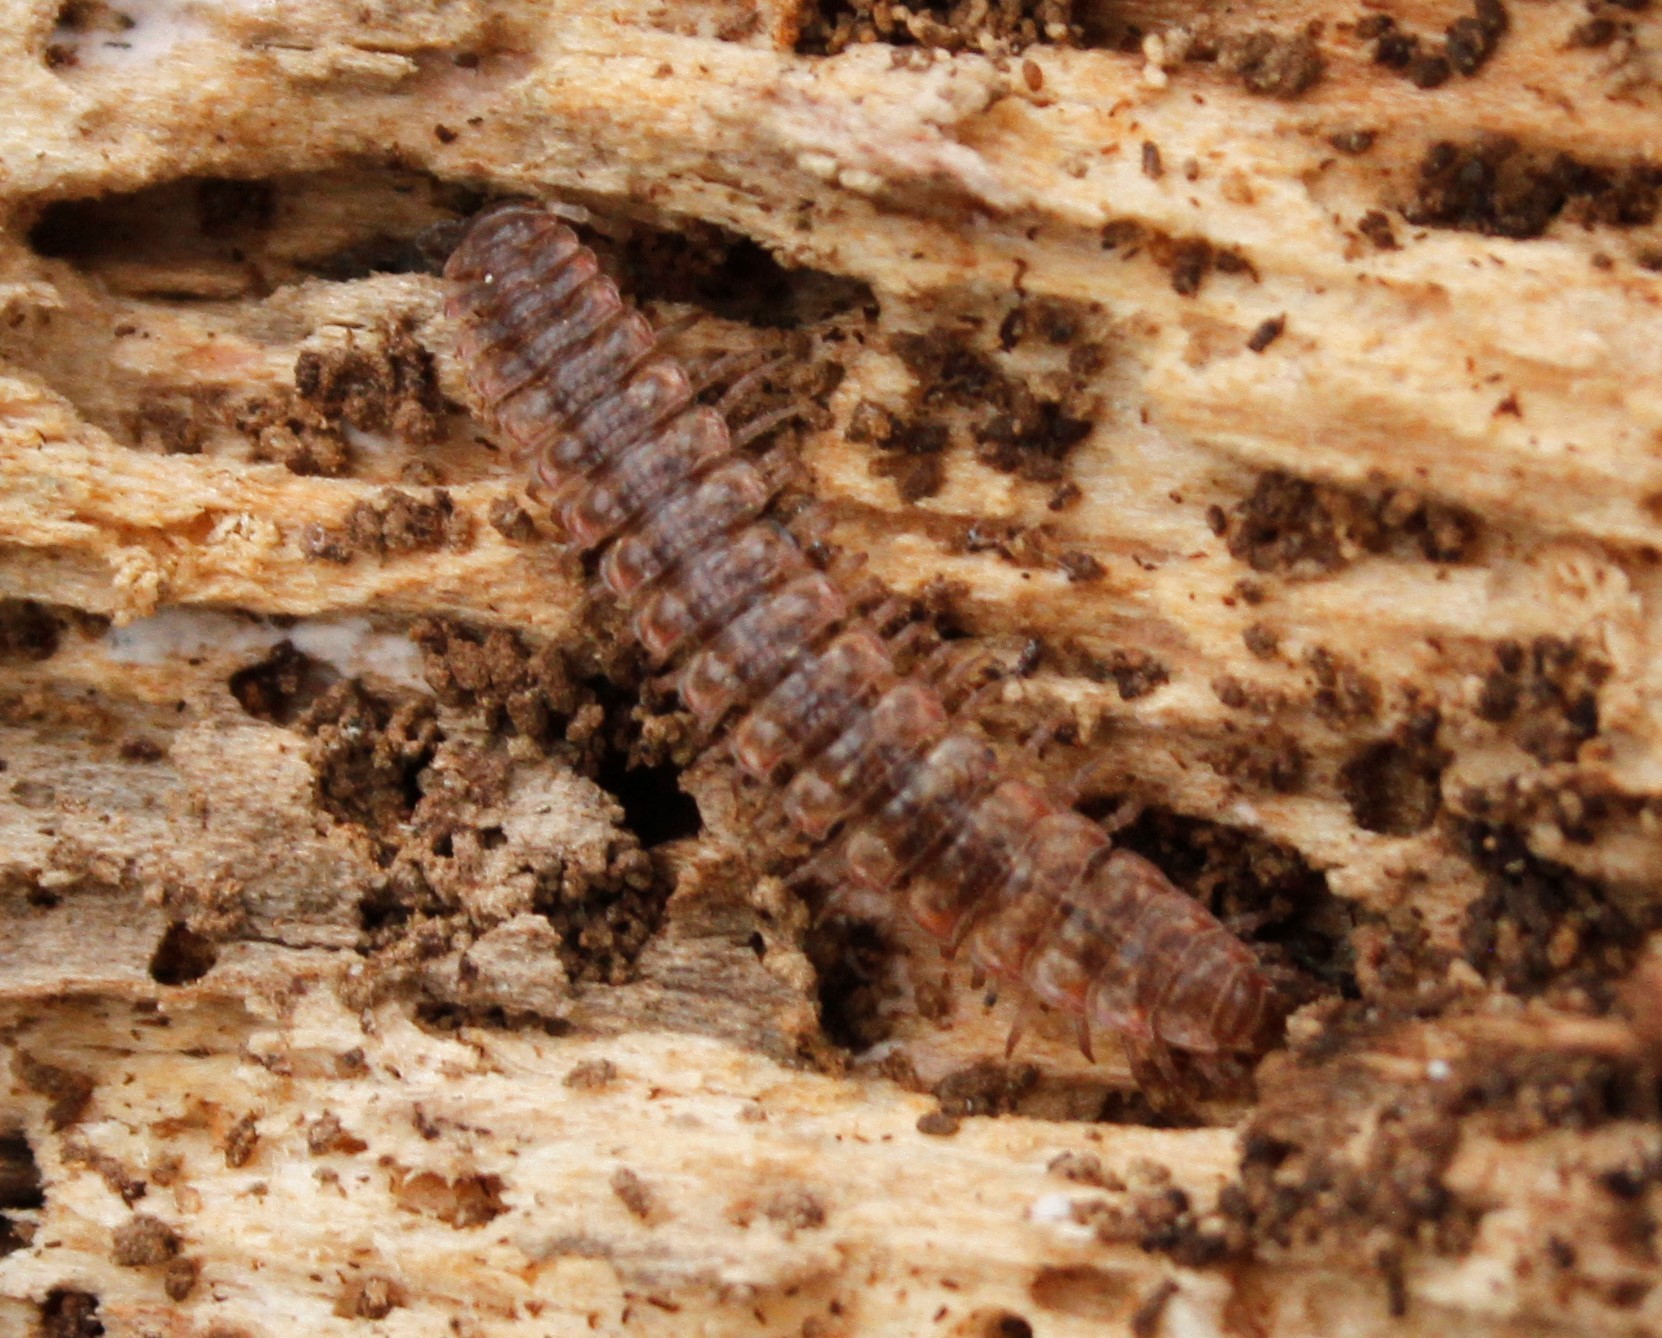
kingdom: Animalia
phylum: Arthropoda
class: Diplopoda
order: Polydesmida
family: Polydesmidae
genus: Pseudopolydesmus
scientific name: Pseudopolydesmus serratus
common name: Common pink flat-back millipede
